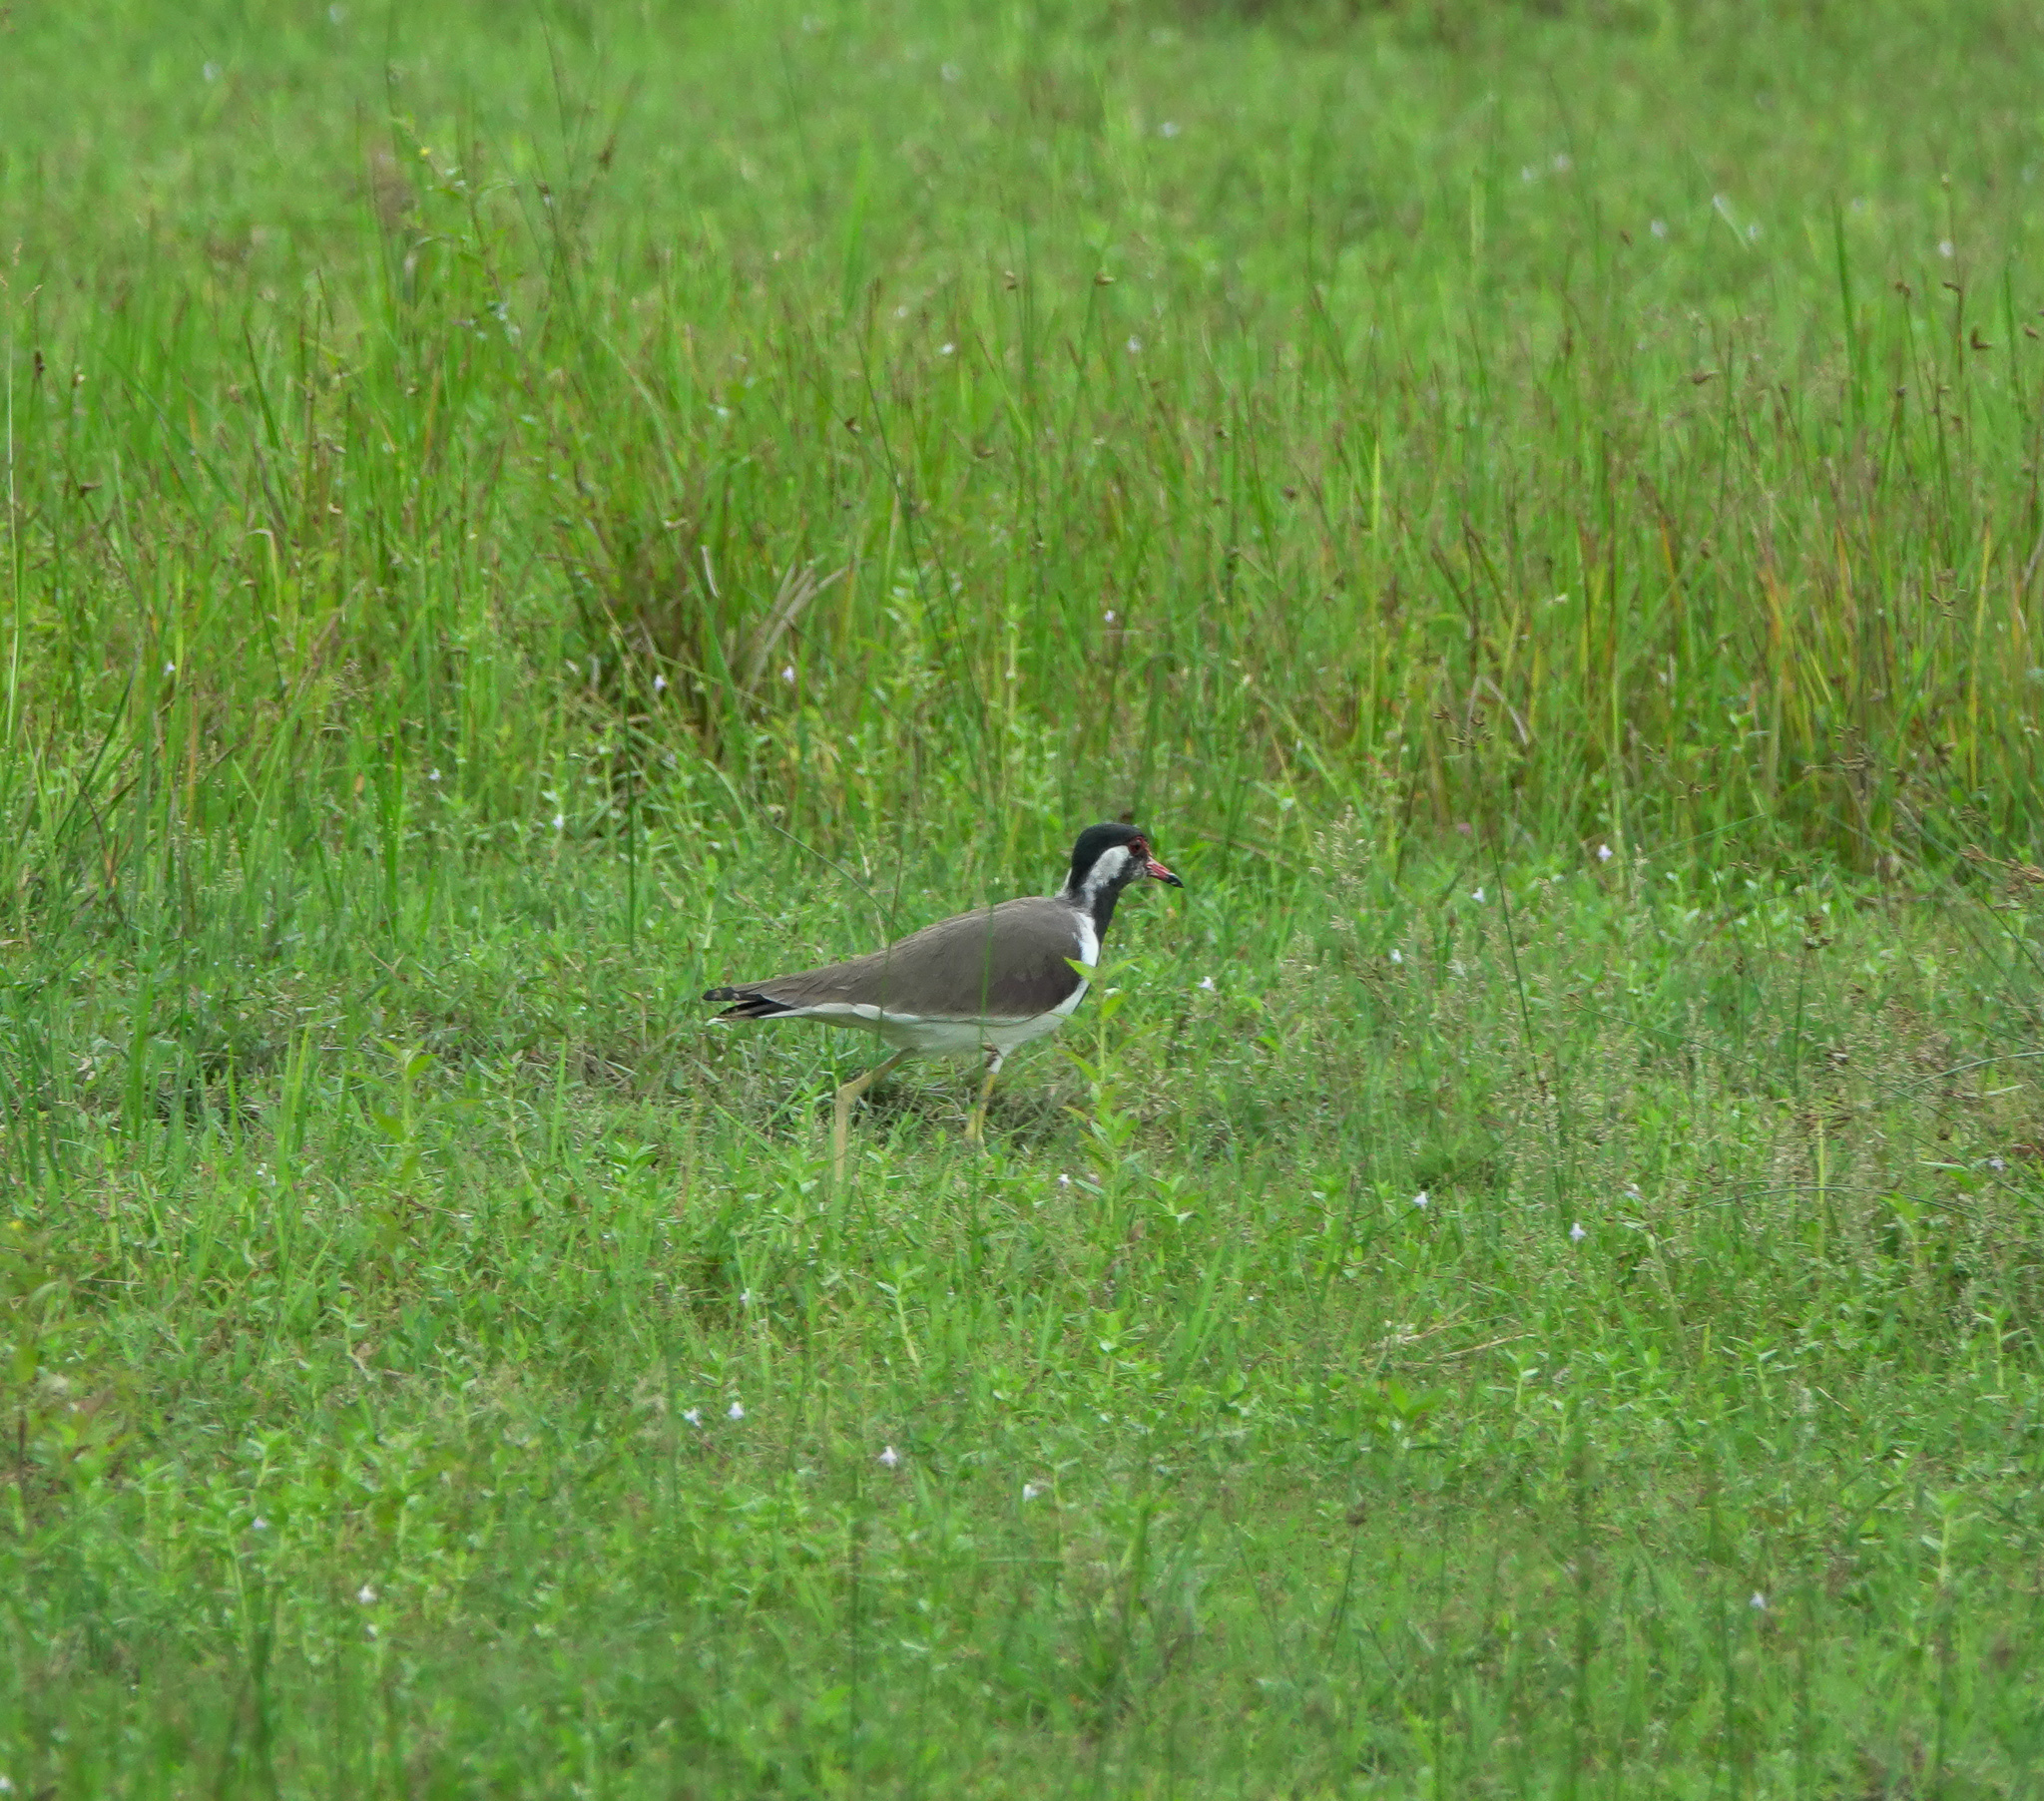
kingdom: Animalia
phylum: Chordata
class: Aves
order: Charadriiformes
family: Charadriidae
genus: Vanellus
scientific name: Vanellus indicus
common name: Red-wattled lapwing
